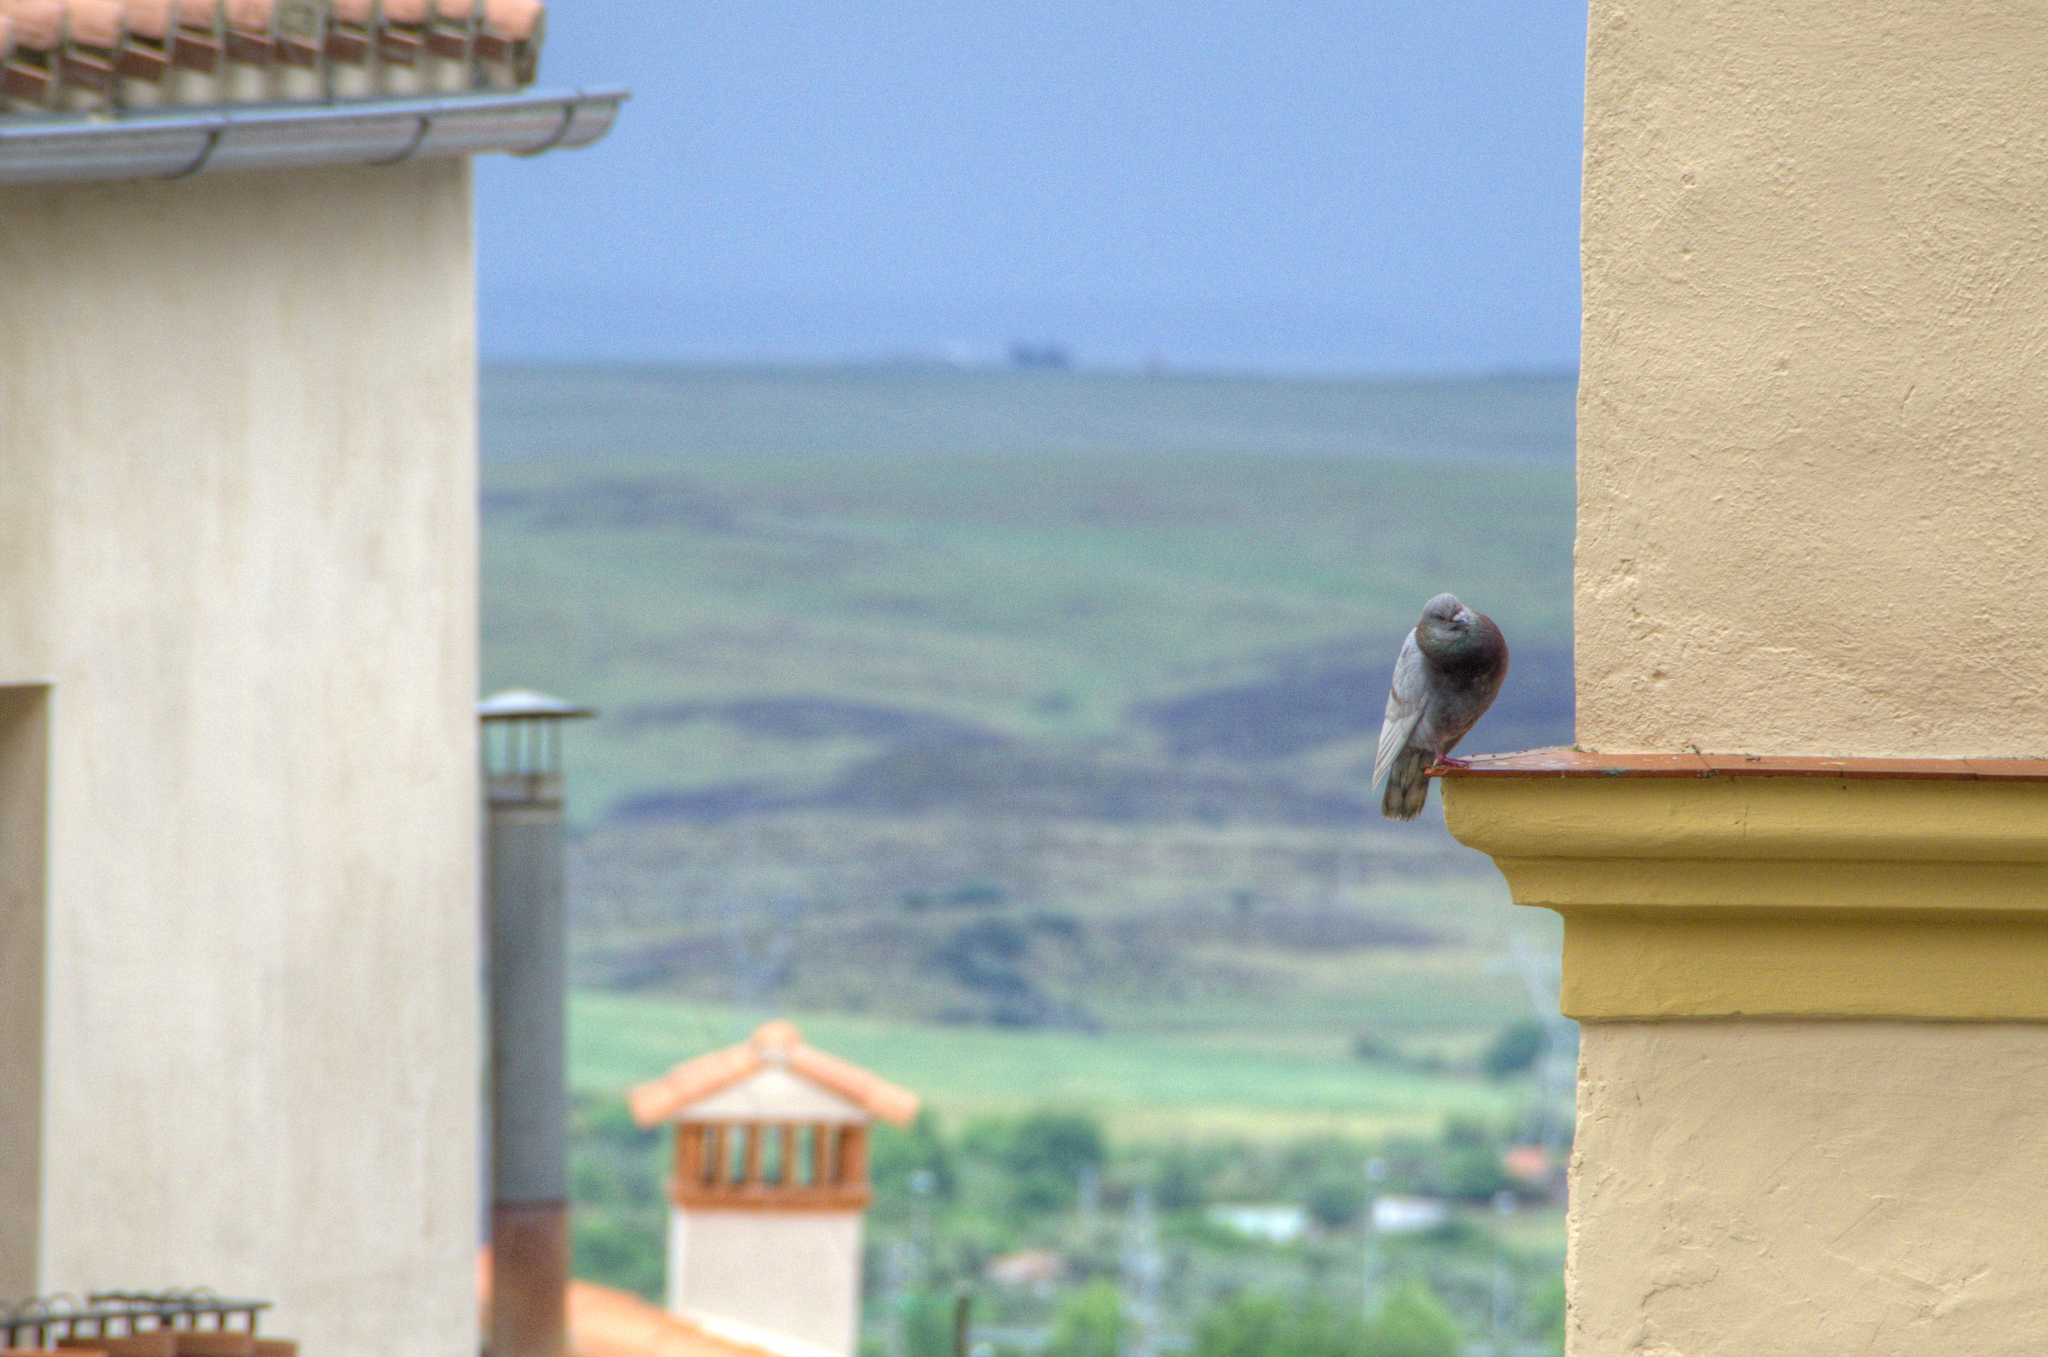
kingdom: Animalia
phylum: Chordata
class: Aves
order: Columbiformes
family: Columbidae
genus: Columba
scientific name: Columba livia
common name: Rock pigeon
